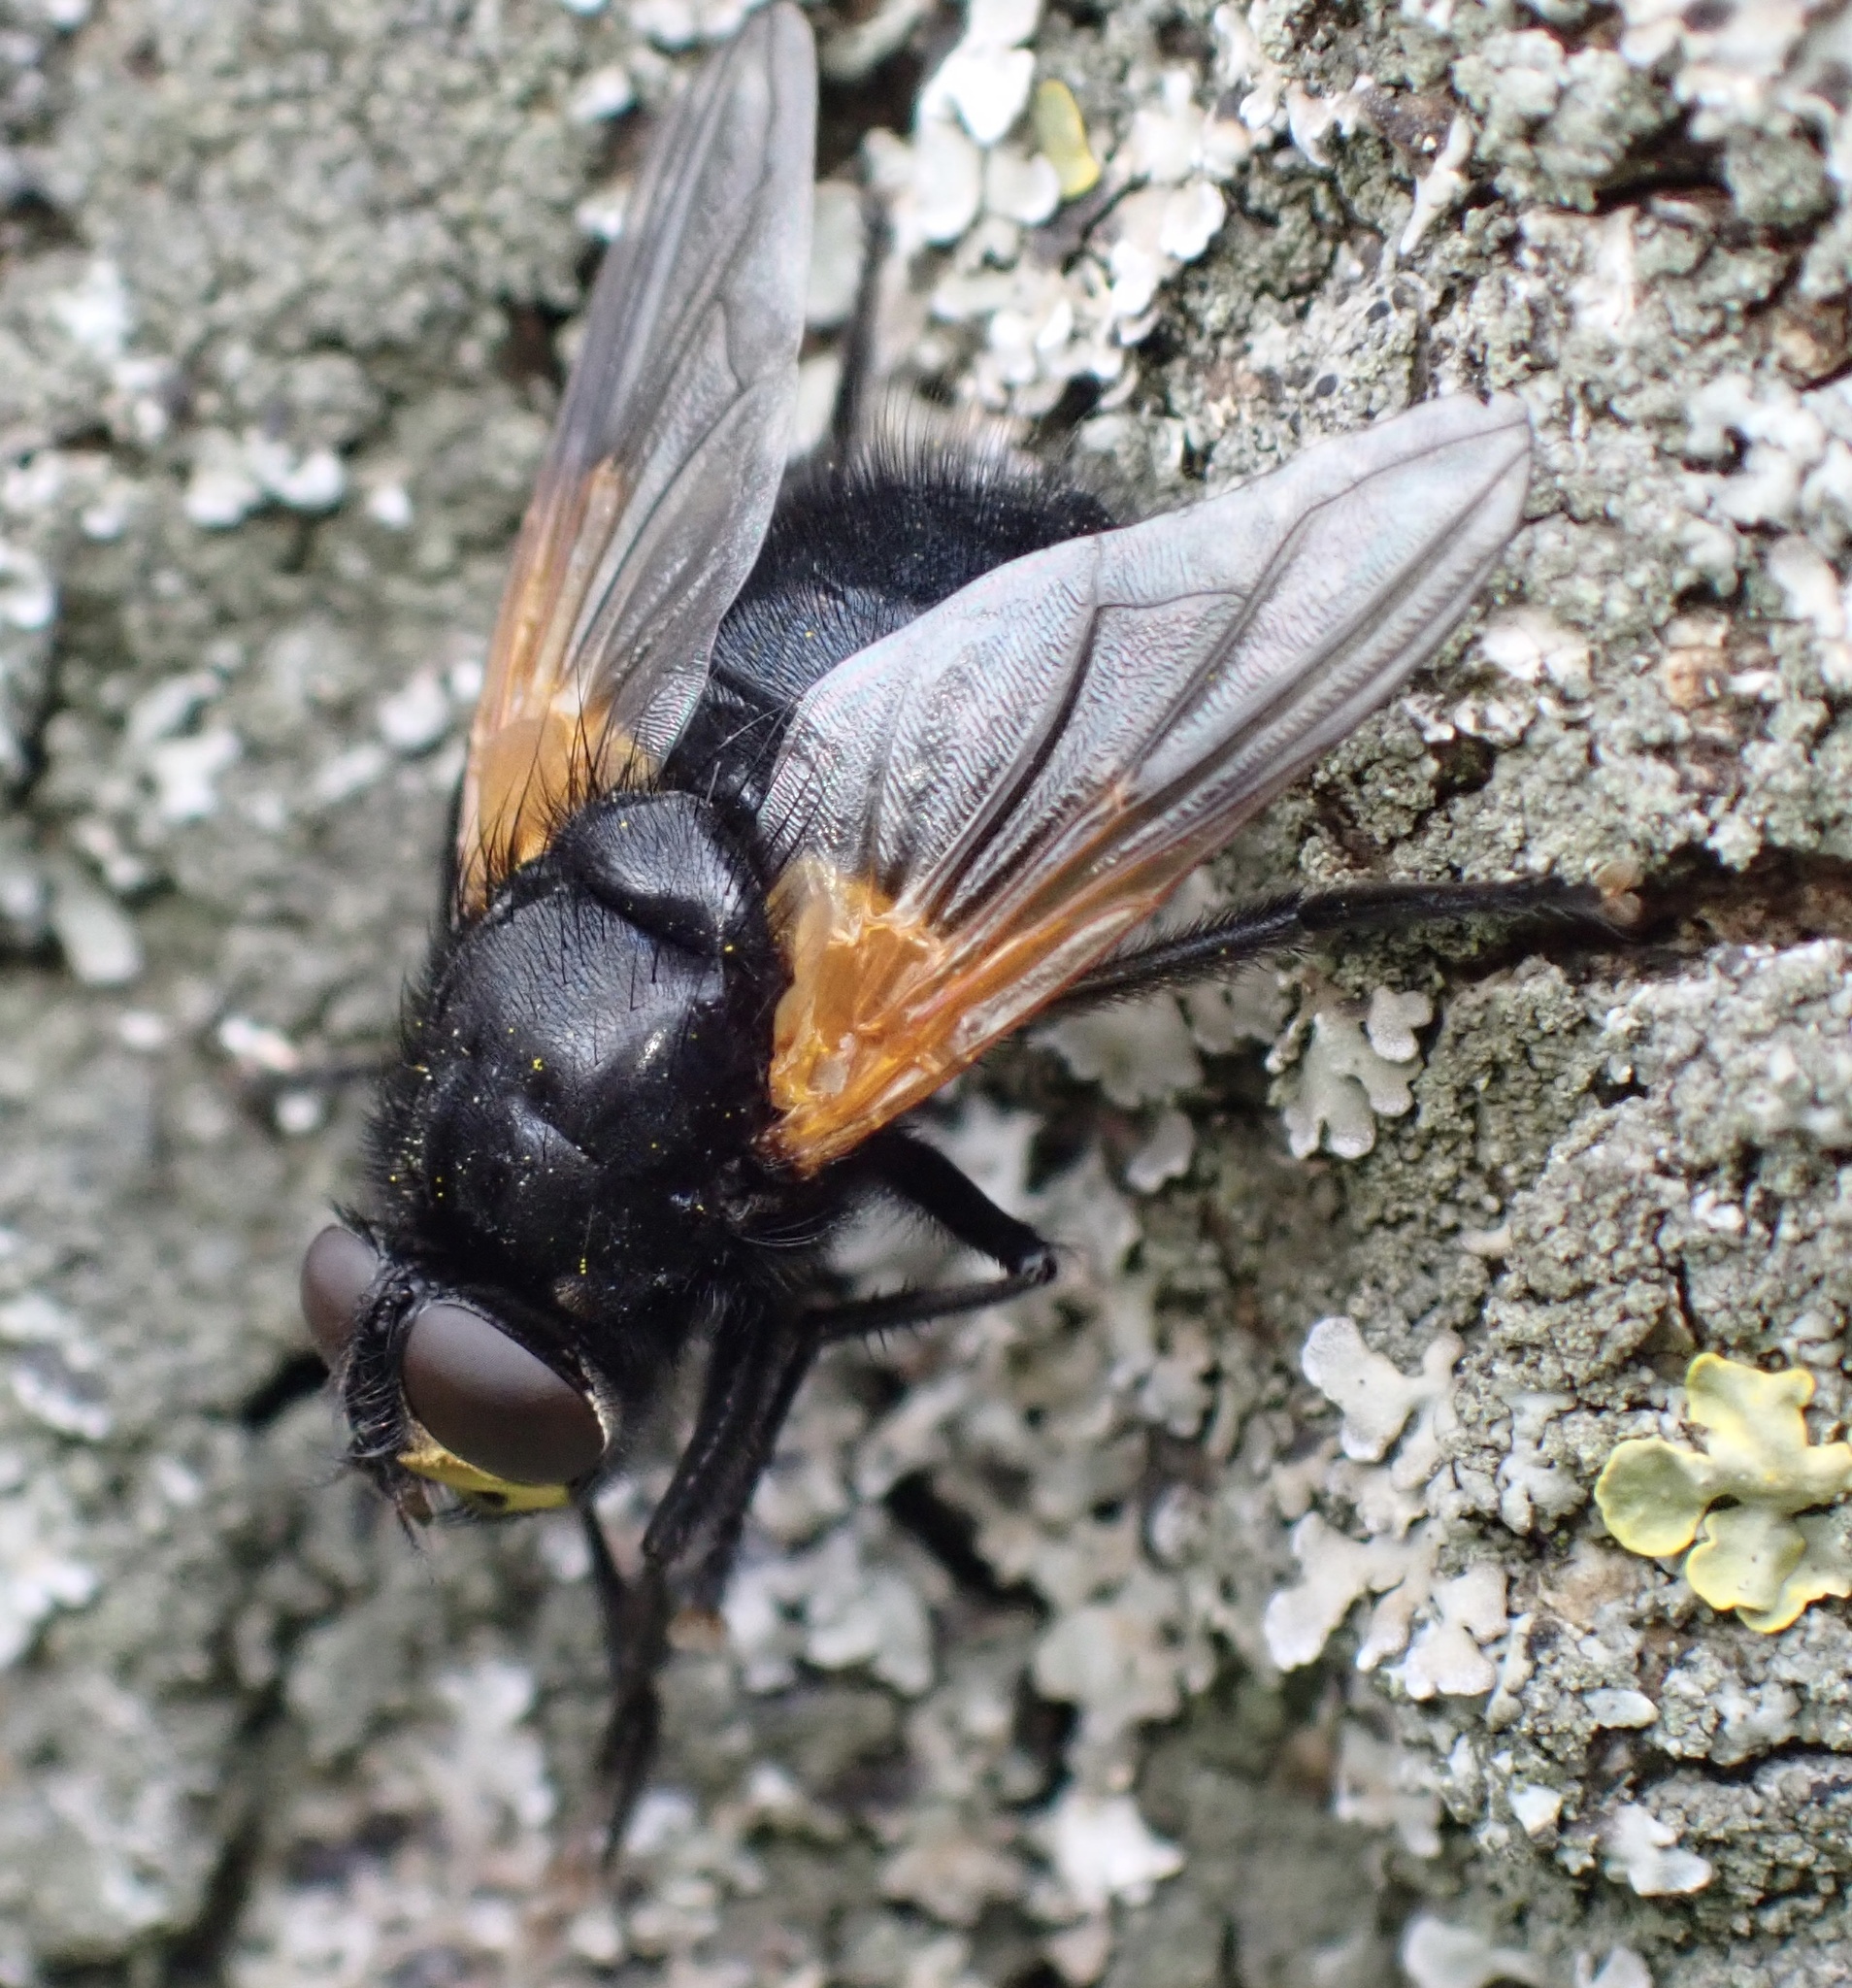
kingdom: Animalia
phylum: Arthropoda
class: Insecta
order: Diptera
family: Muscidae
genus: Mesembrina
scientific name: Mesembrina meridiana
